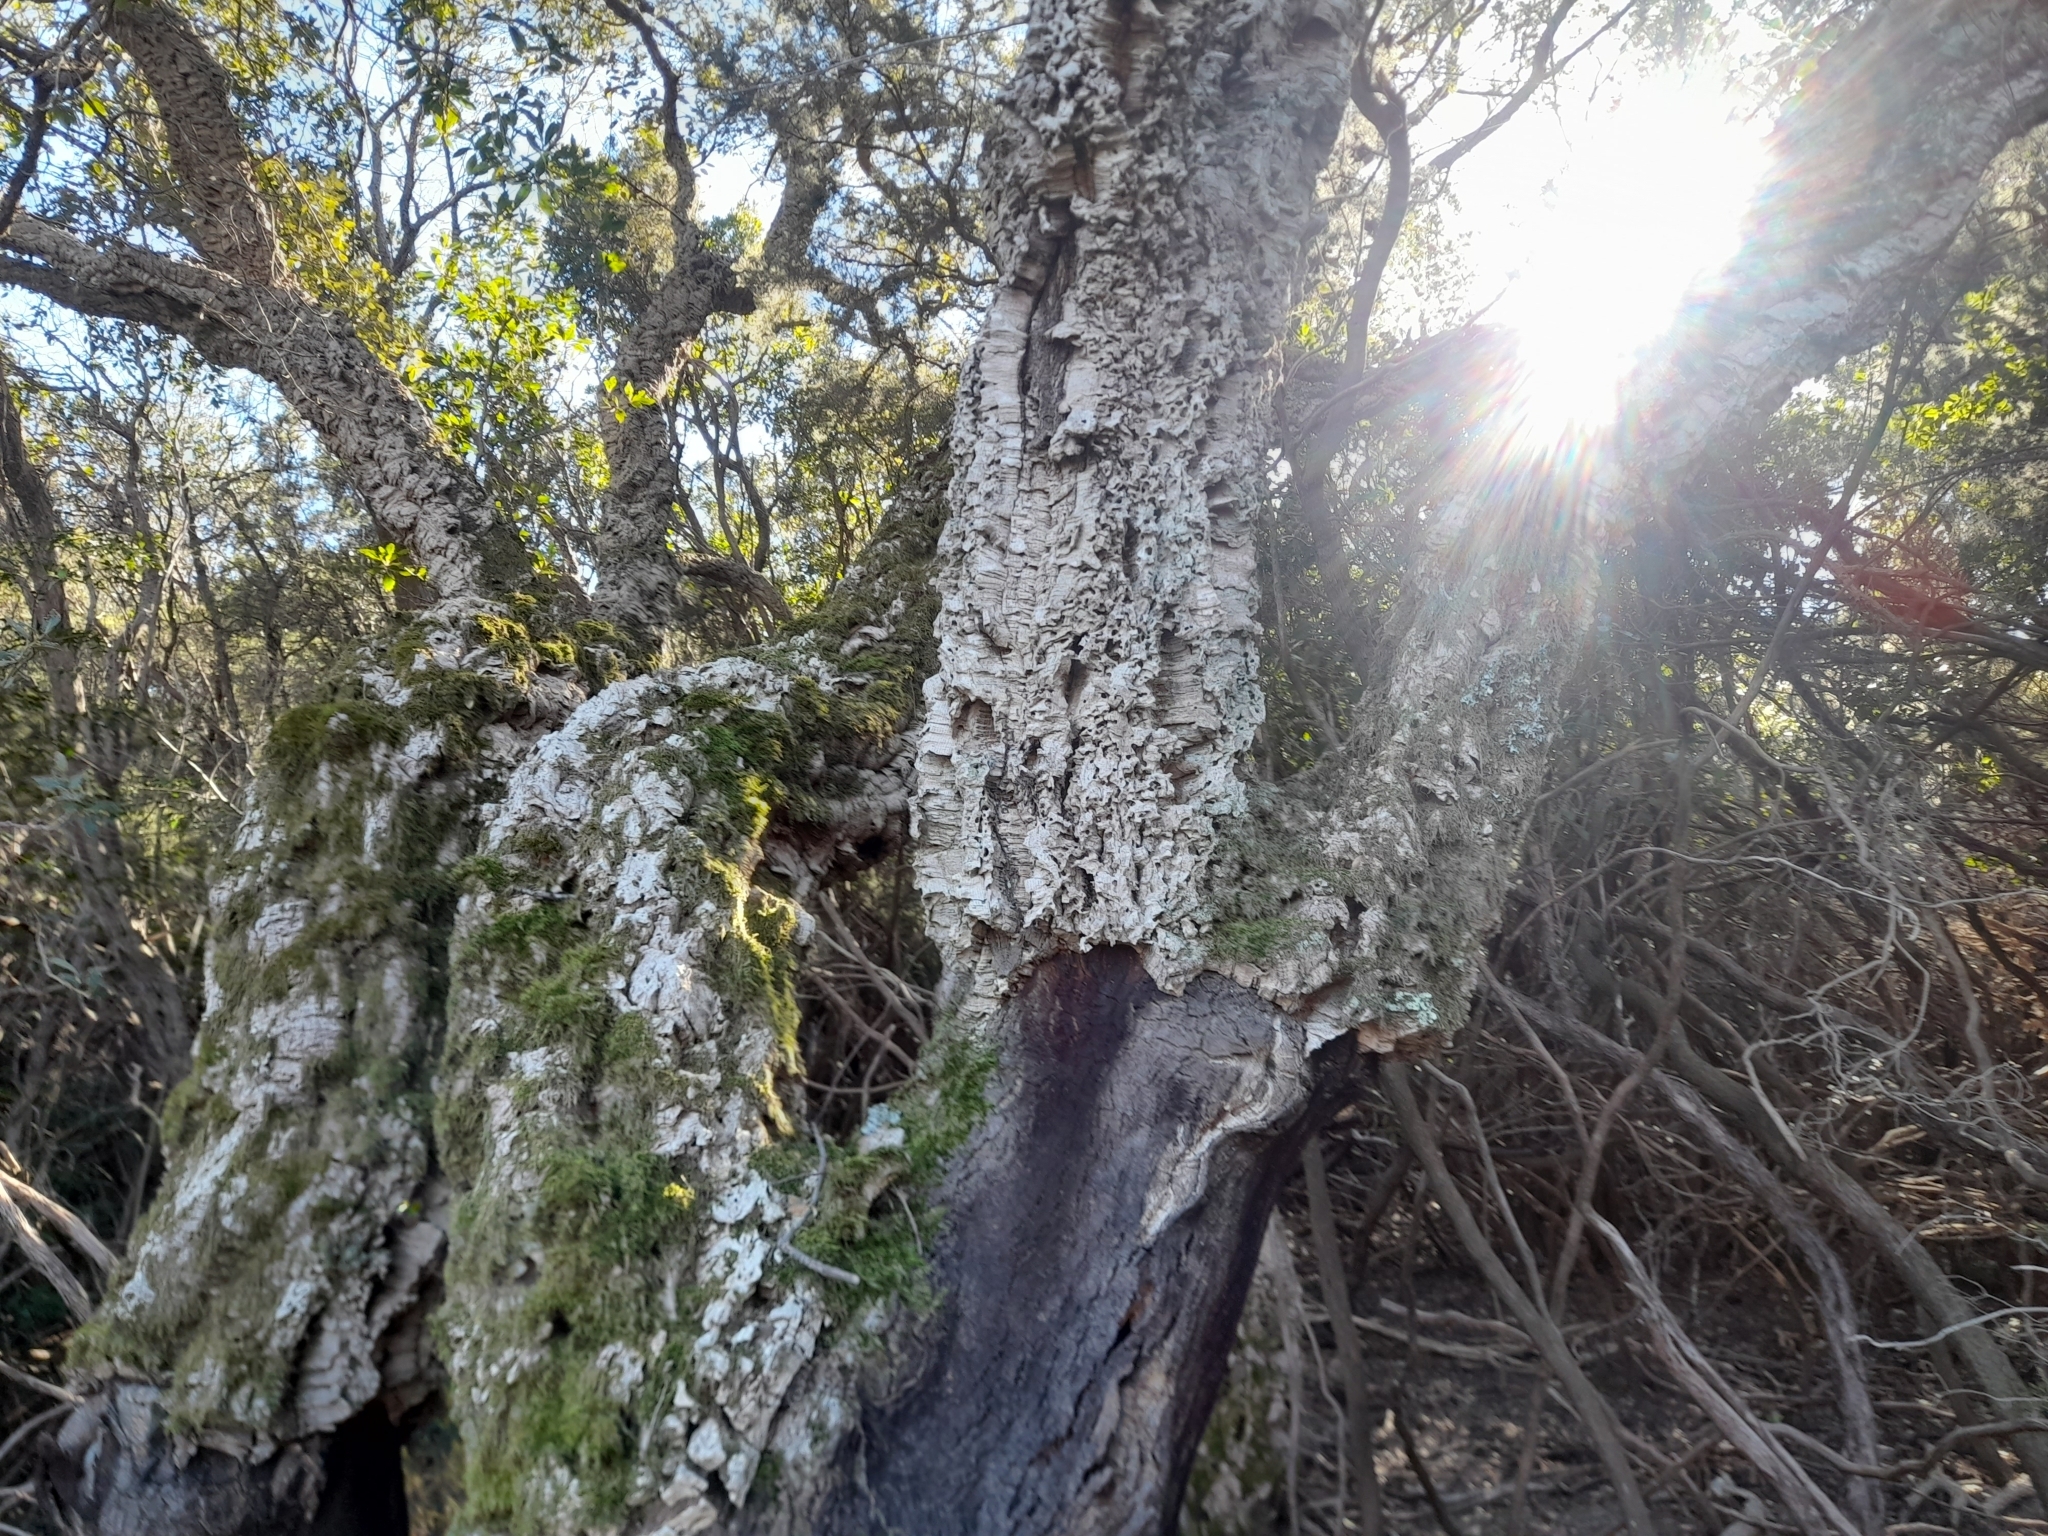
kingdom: Plantae
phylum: Tracheophyta
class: Magnoliopsida
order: Fagales
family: Fagaceae
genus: Quercus
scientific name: Quercus suber
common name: Cork oak
